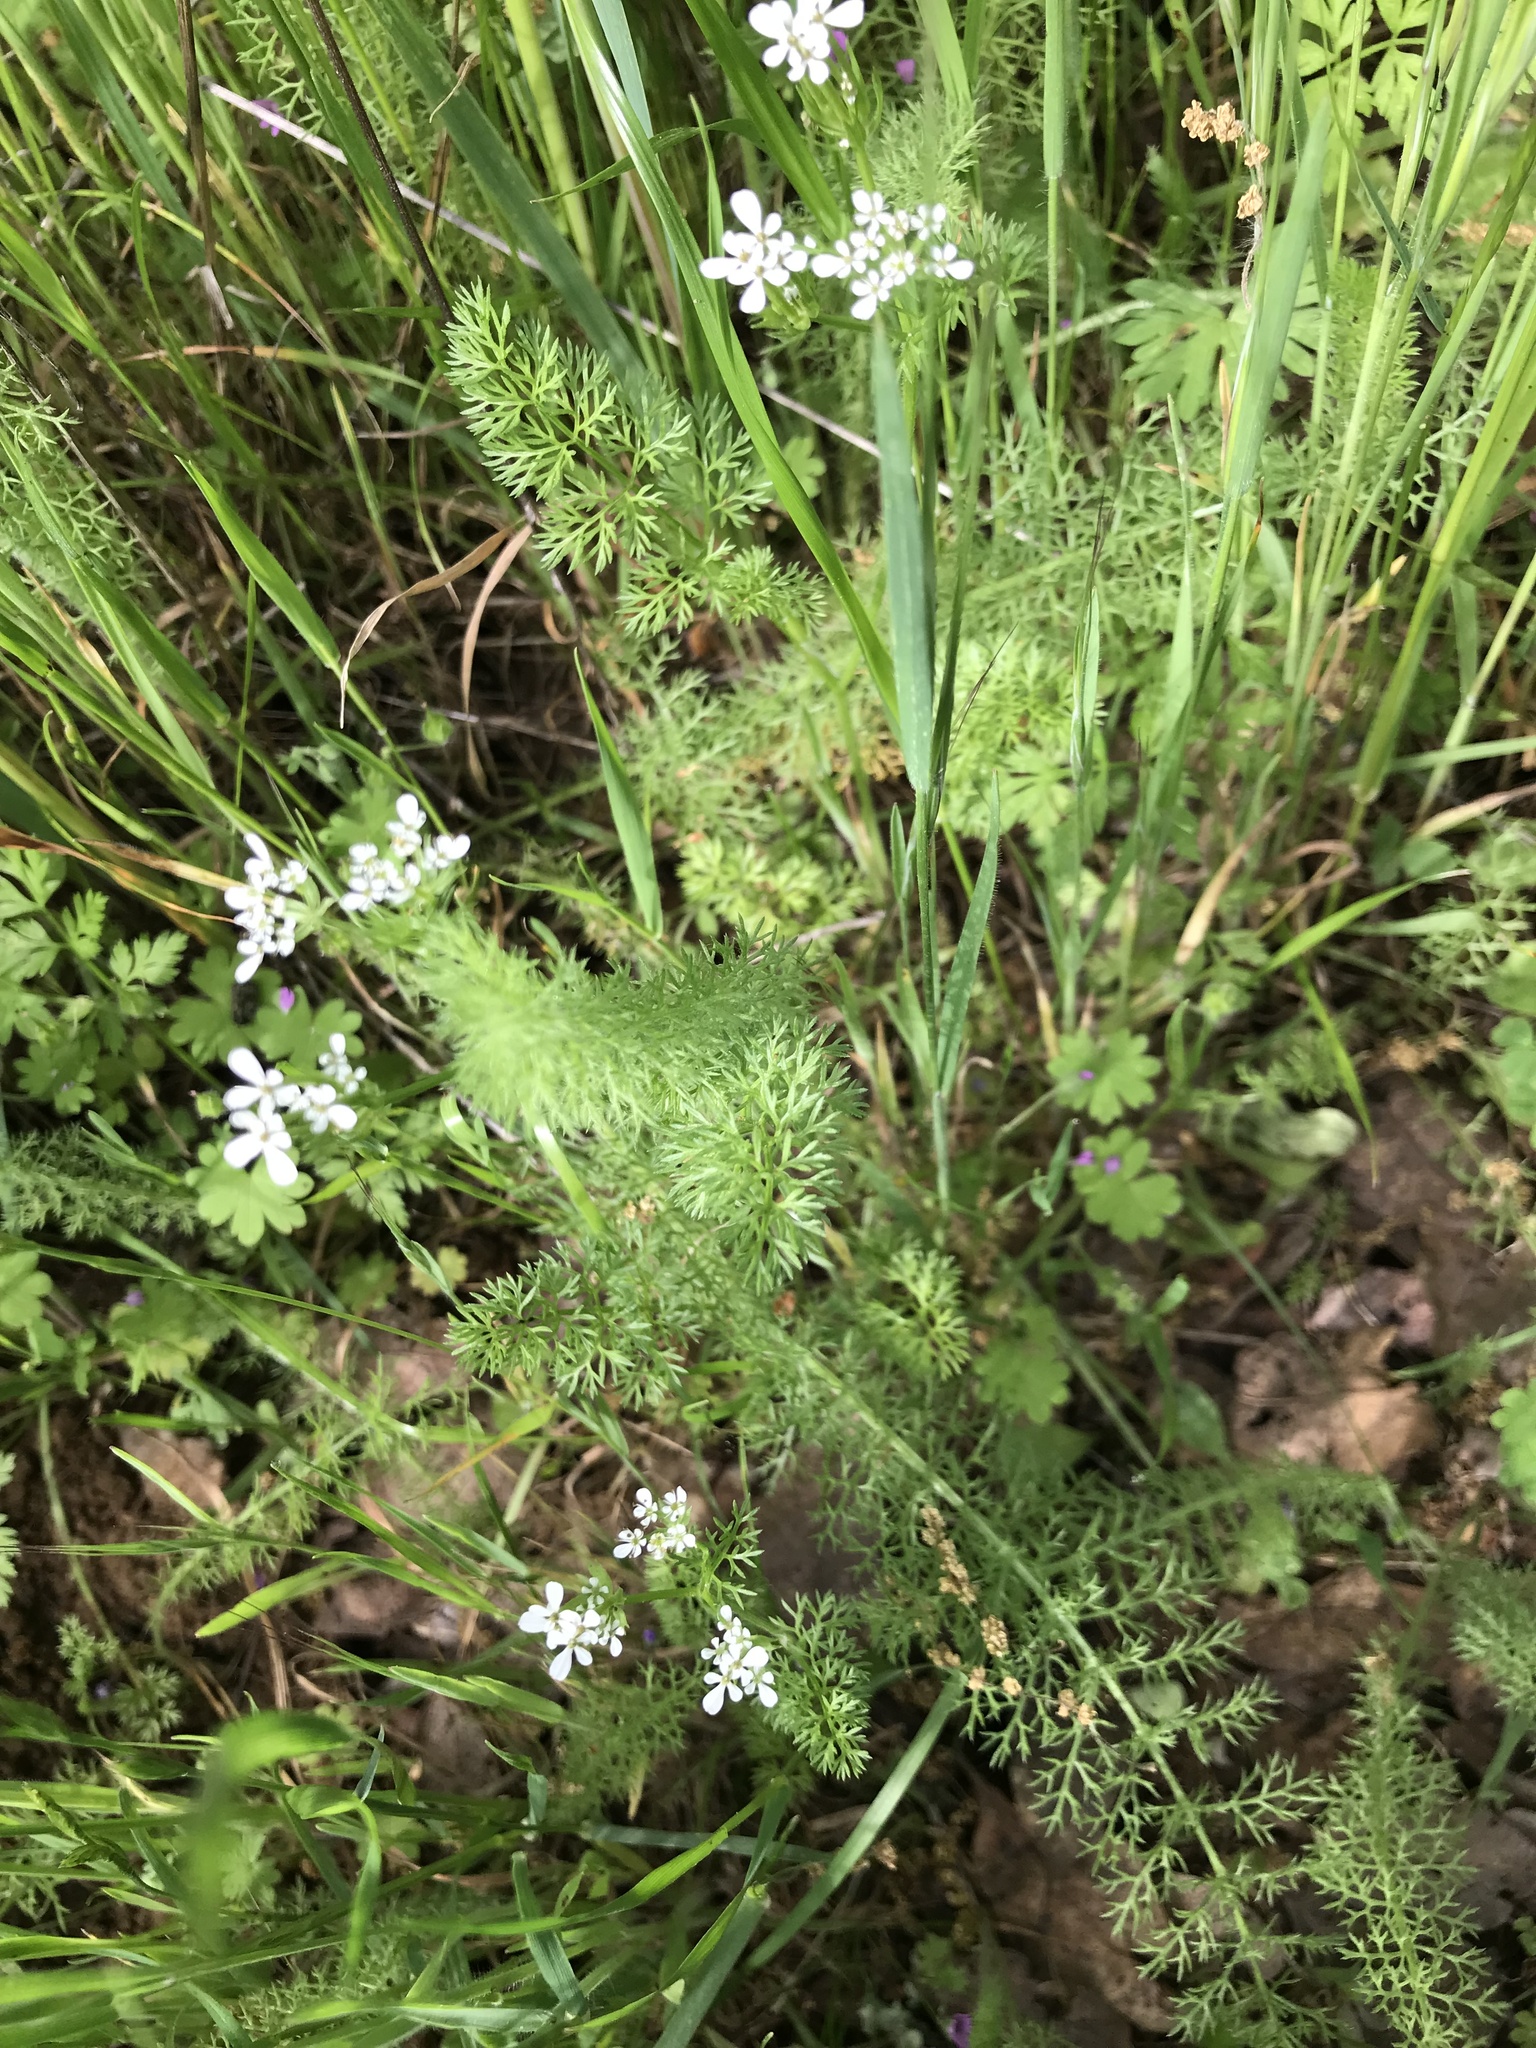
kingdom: Plantae
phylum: Tracheophyta
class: Magnoliopsida
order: Apiales
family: Apiaceae
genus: Scandix
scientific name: Scandix pecten-veneris
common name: Shepherd's-needle
